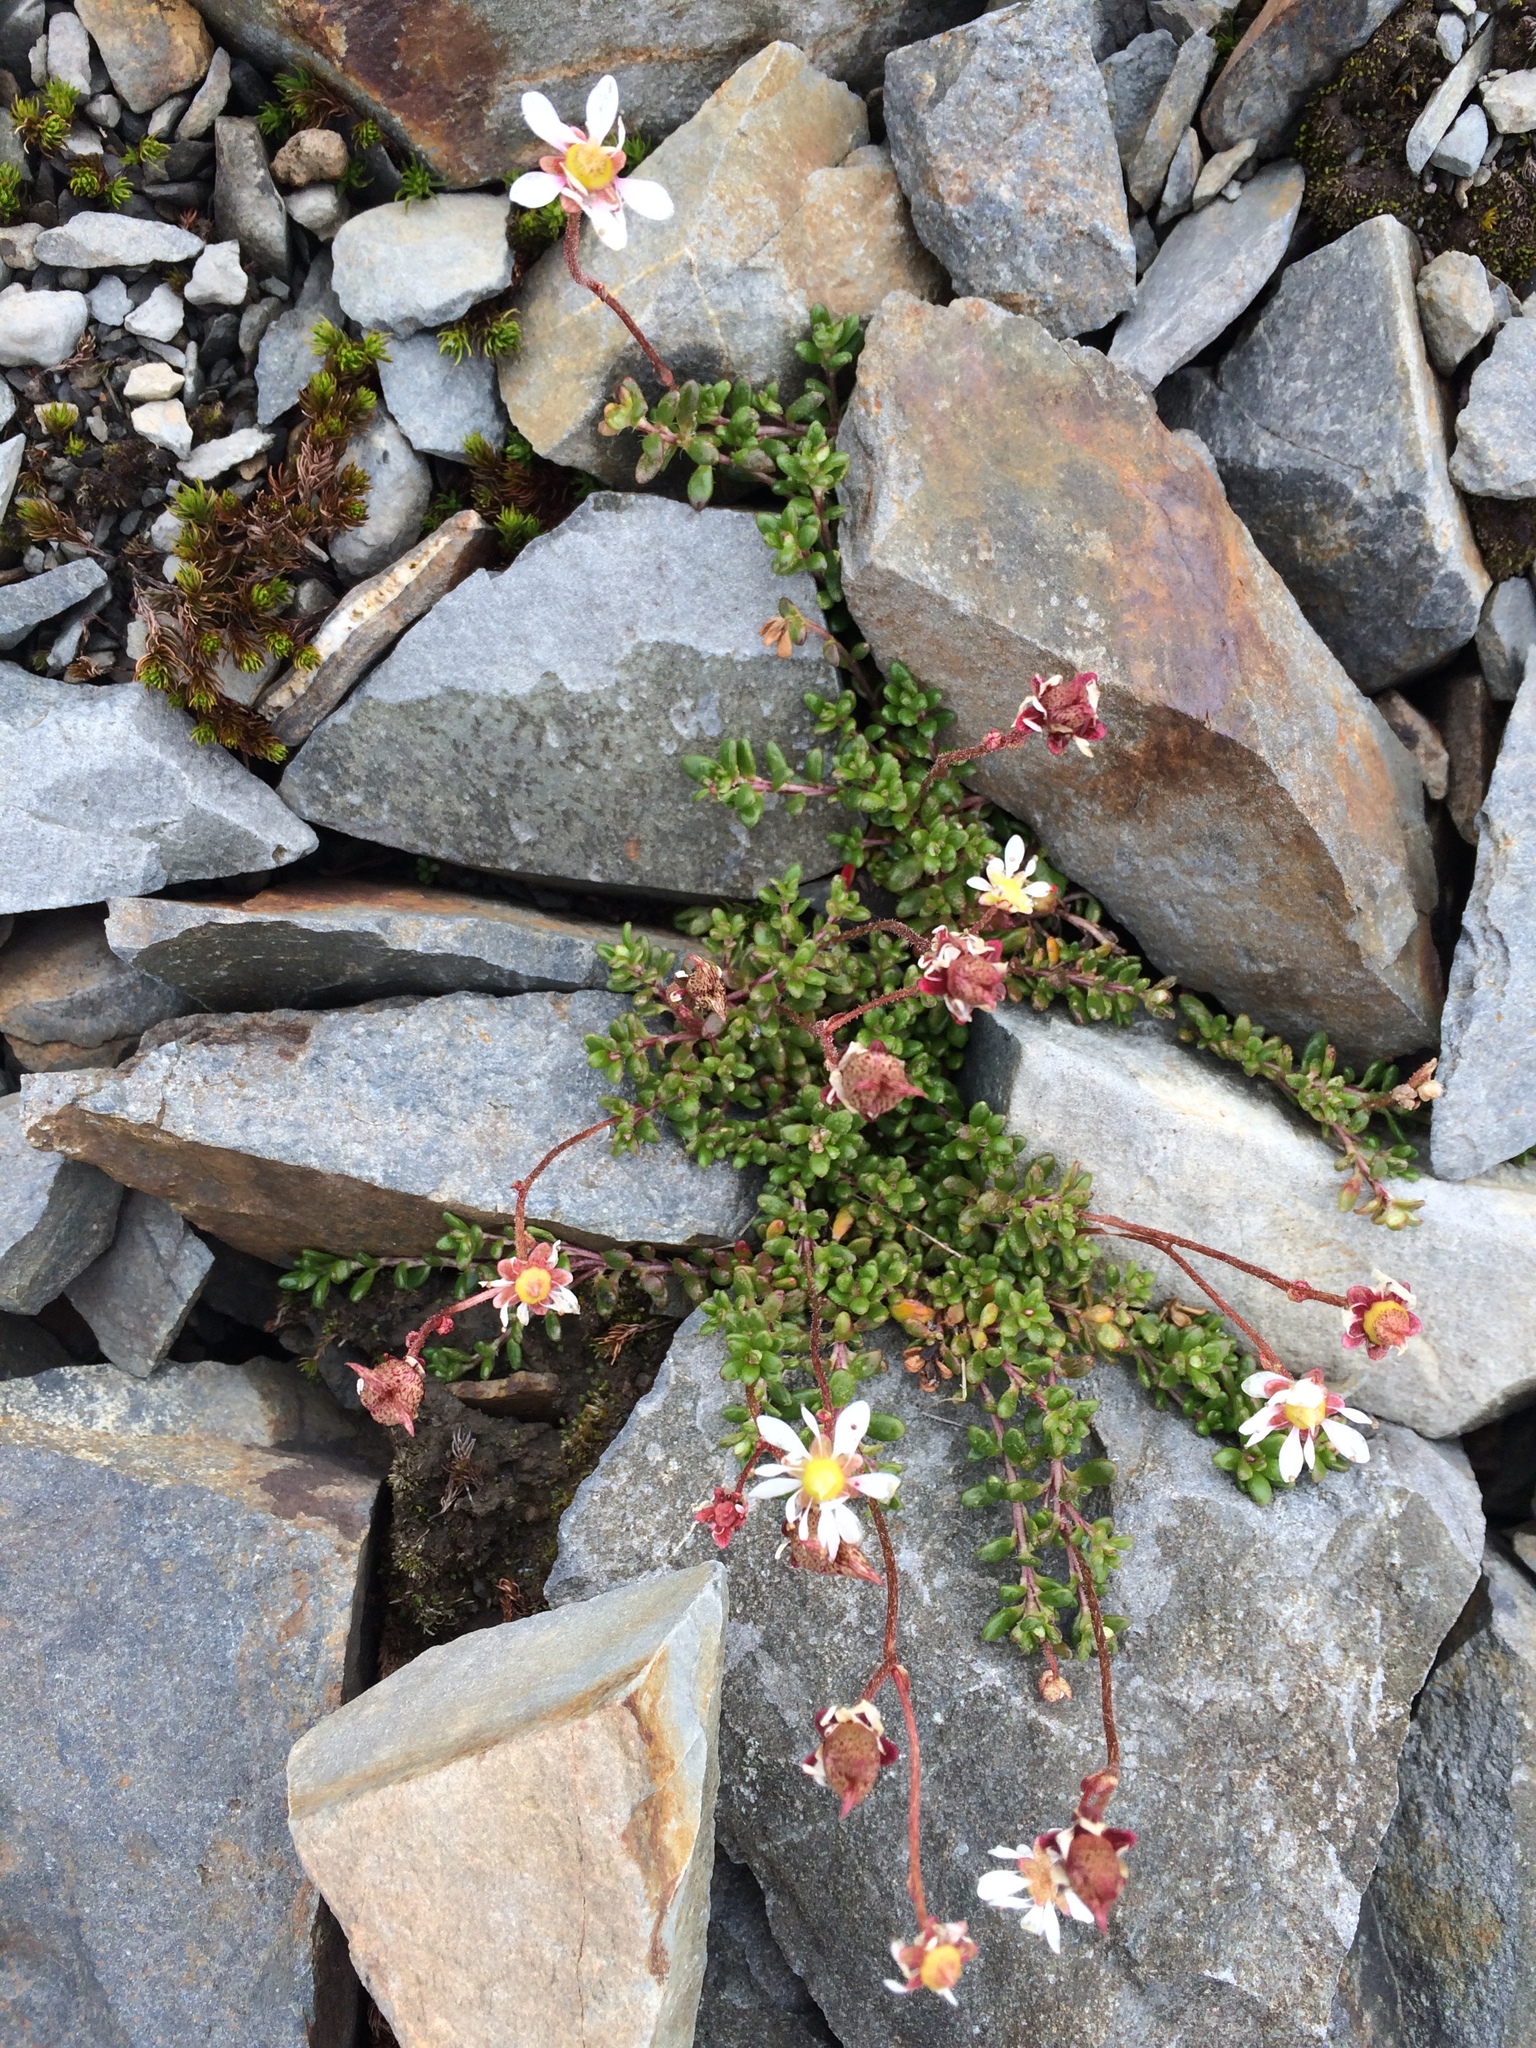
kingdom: Plantae
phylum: Tracheophyta
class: Magnoliopsida
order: Saxifragales
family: Saxifragaceae
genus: Micranthes
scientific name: Micranthes tolmiei
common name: Tolmie's saxifrage
